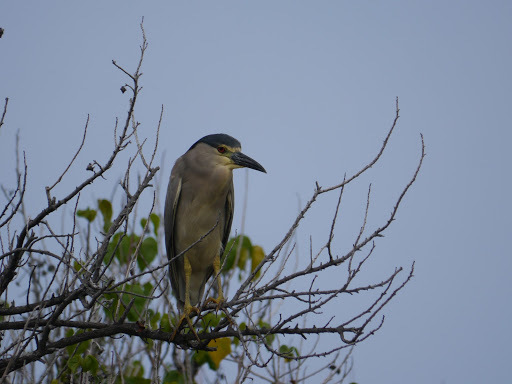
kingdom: Animalia
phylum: Chordata
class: Aves
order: Pelecaniformes
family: Ardeidae
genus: Nycticorax
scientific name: Nycticorax nycticorax
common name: Black-crowned night heron
